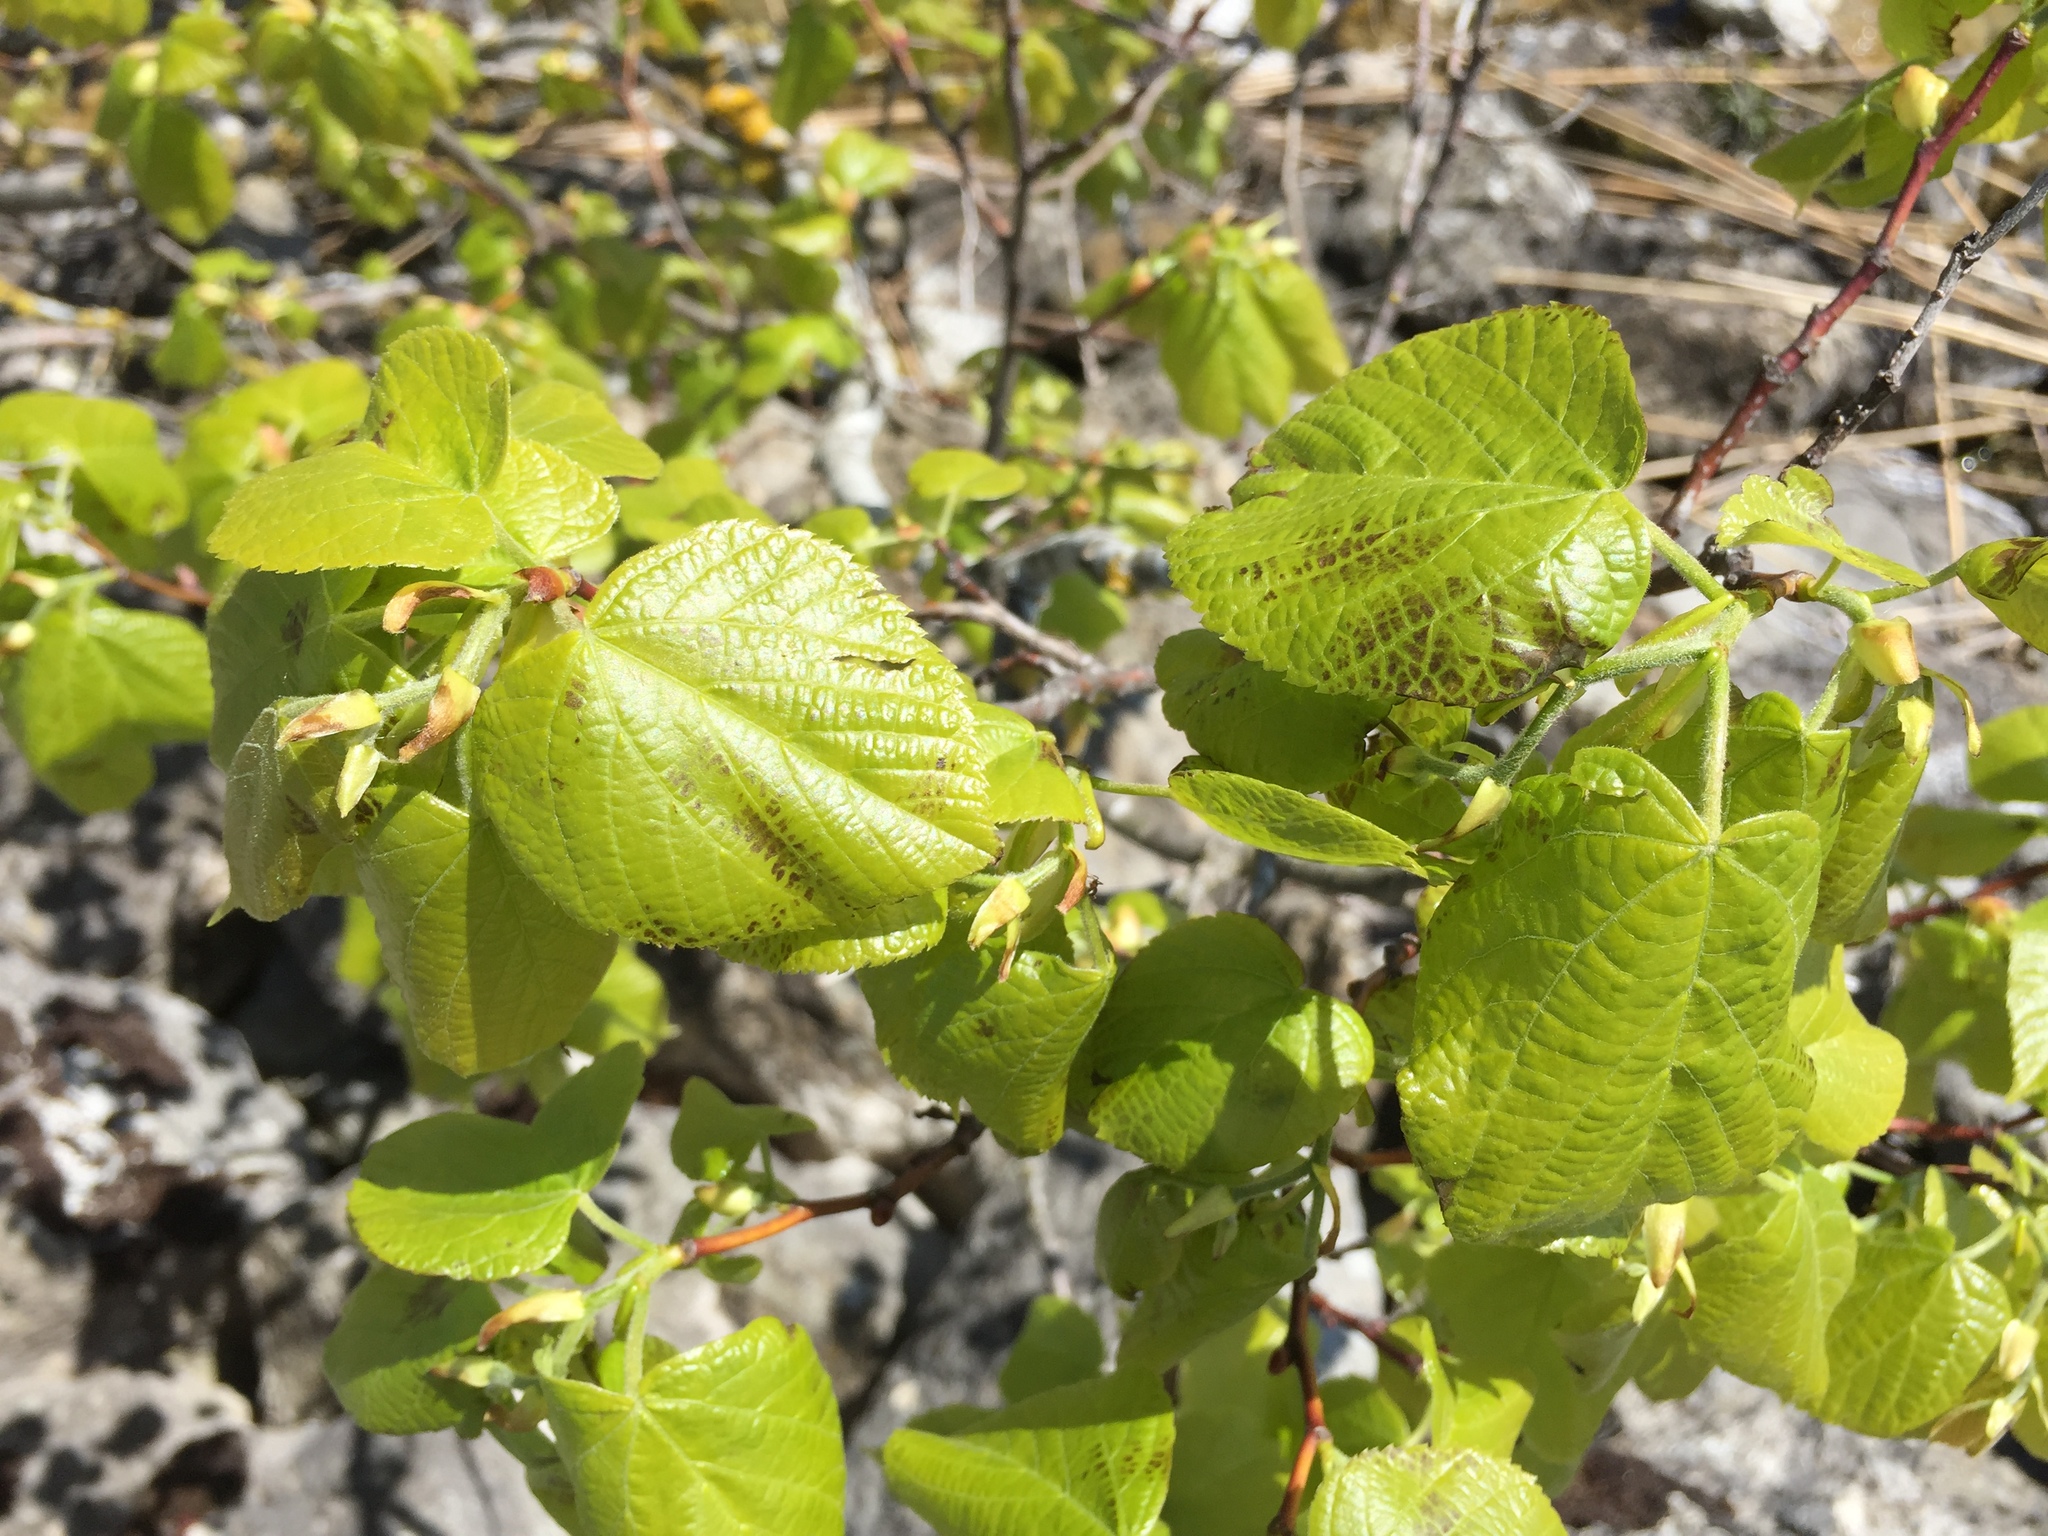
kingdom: Plantae
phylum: Tracheophyta
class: Magnoliopsida
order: Malvales
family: Malvaceae
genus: Tilia
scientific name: Tilia cordata
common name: Small-leaved lime
